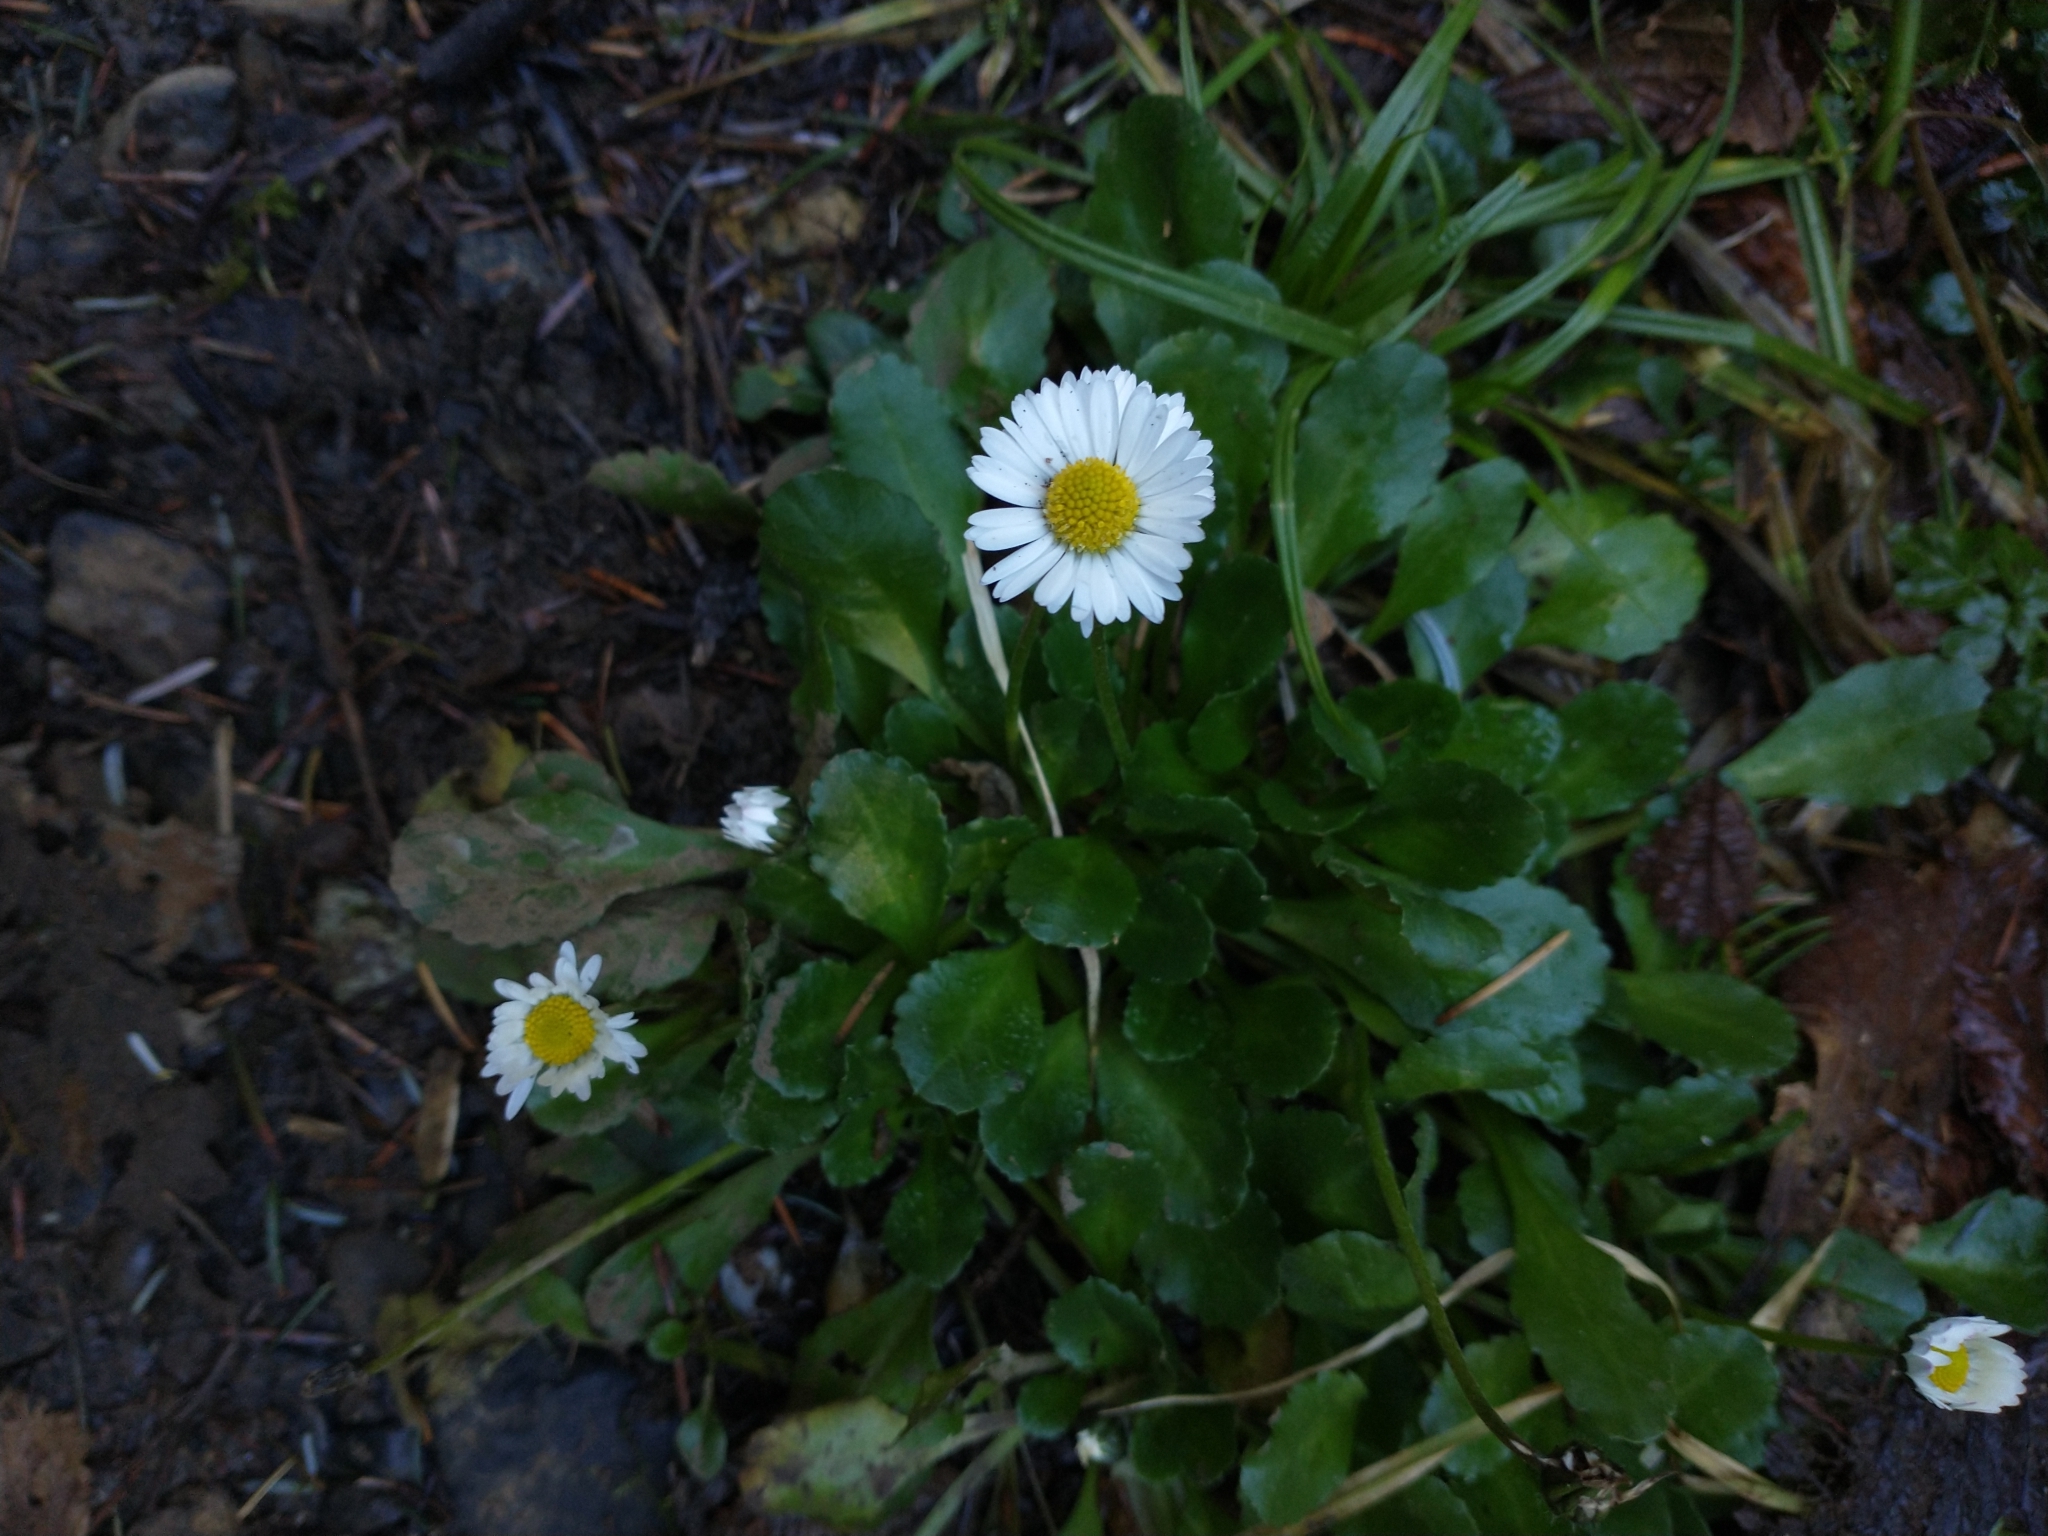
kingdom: Plantae
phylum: Tracheophyta
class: Magnoliopsida
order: Asterales
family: Asteraceae
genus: Bellis
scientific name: Bellis perennis
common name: Lawndaisy
